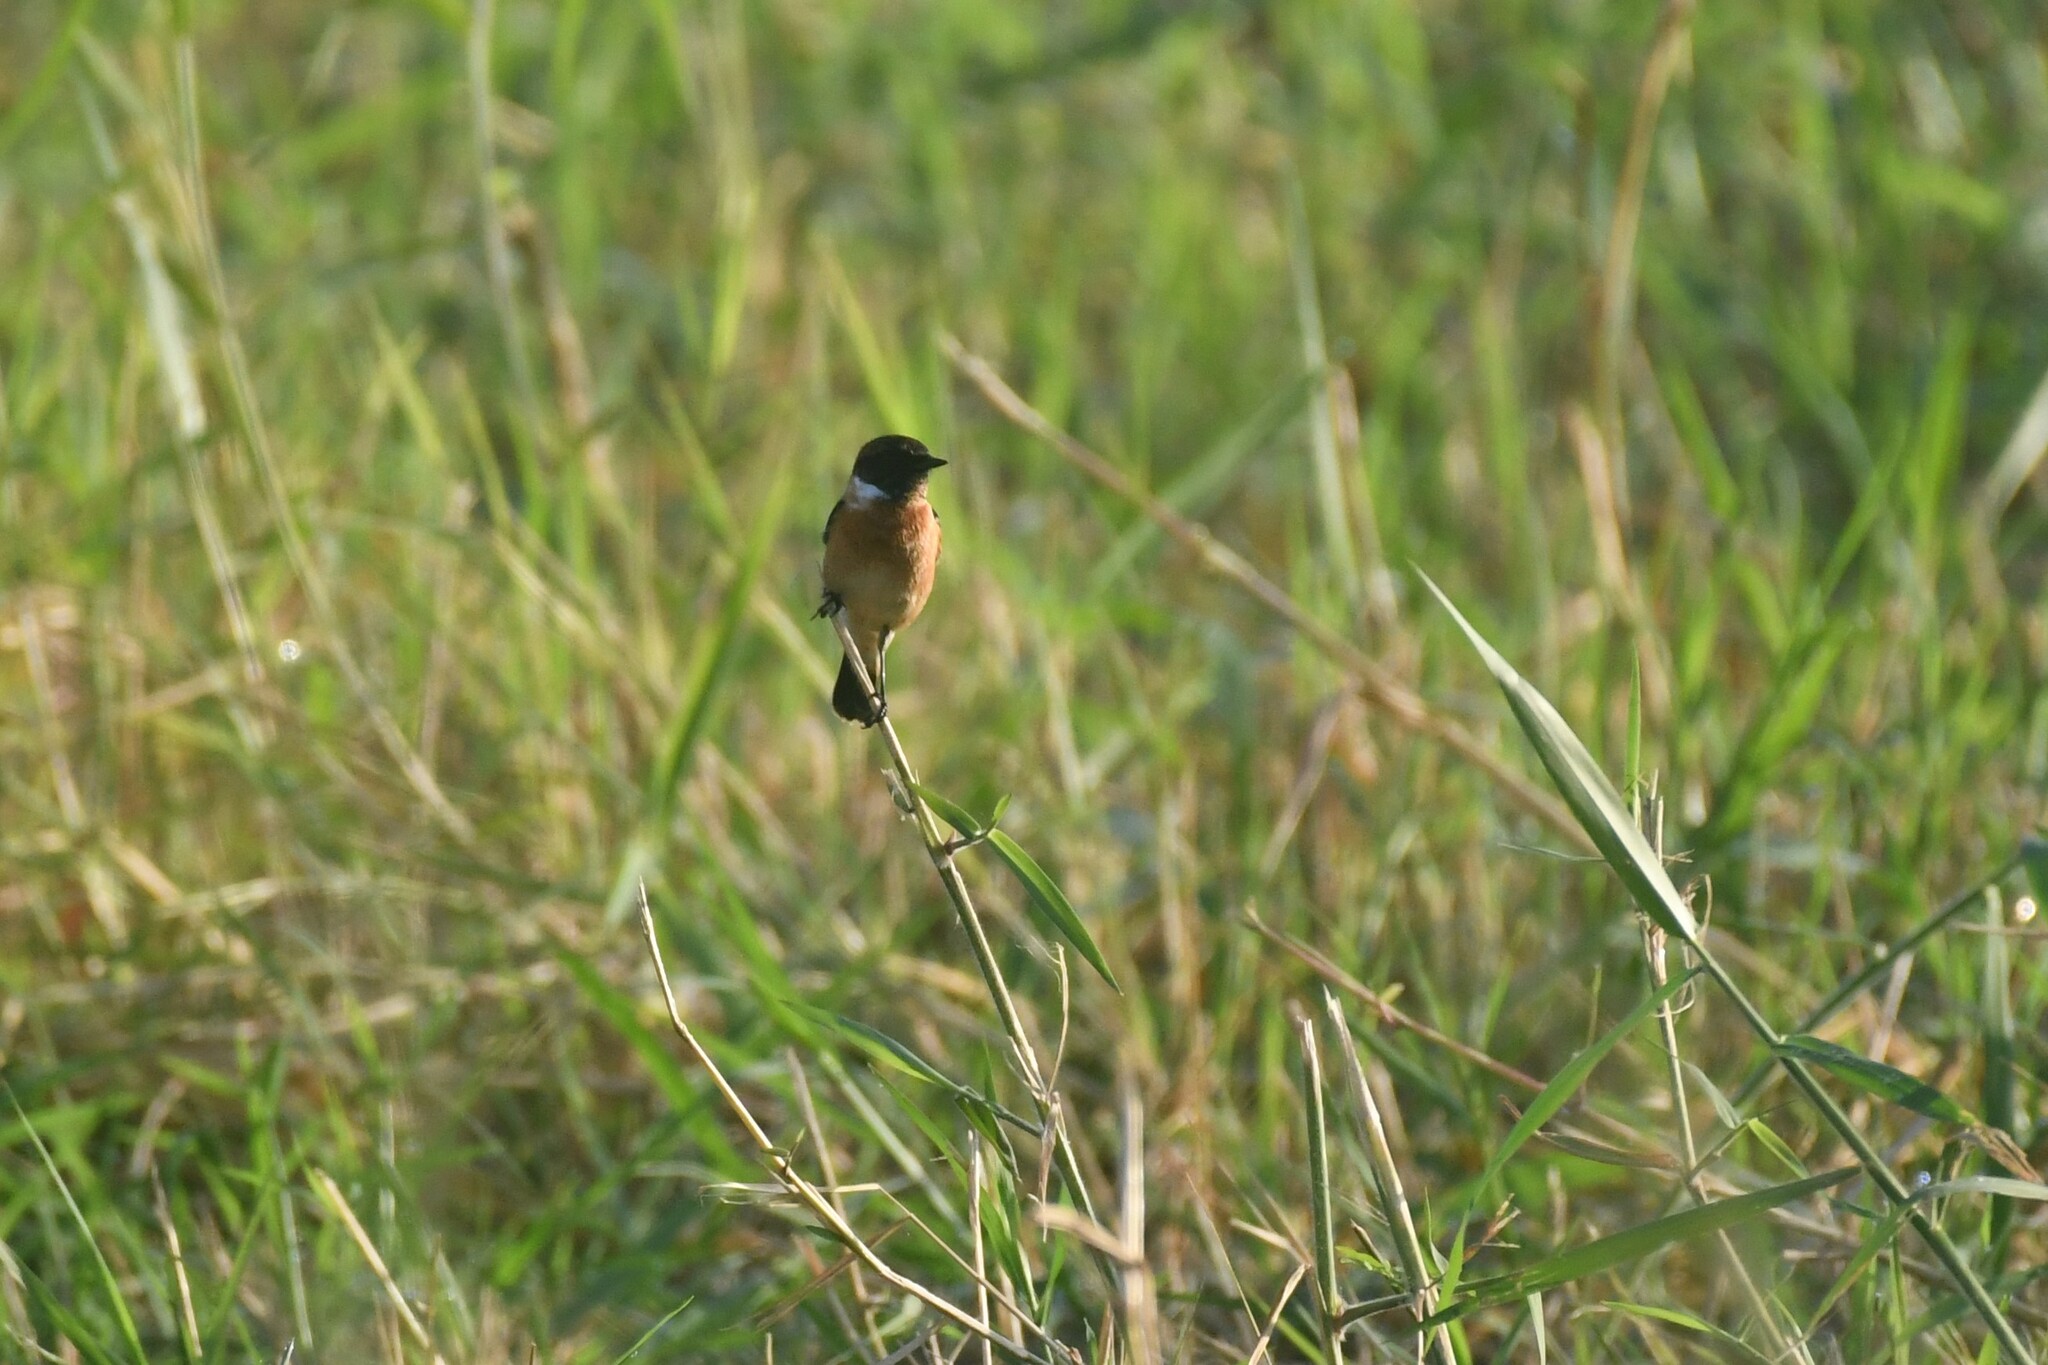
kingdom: Animalia
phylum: Chordata
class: Aves
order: Passeriformes
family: Muscicapidae
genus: Saxicola
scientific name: Saxicola stejnegeri
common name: Stejneger's stonechat
